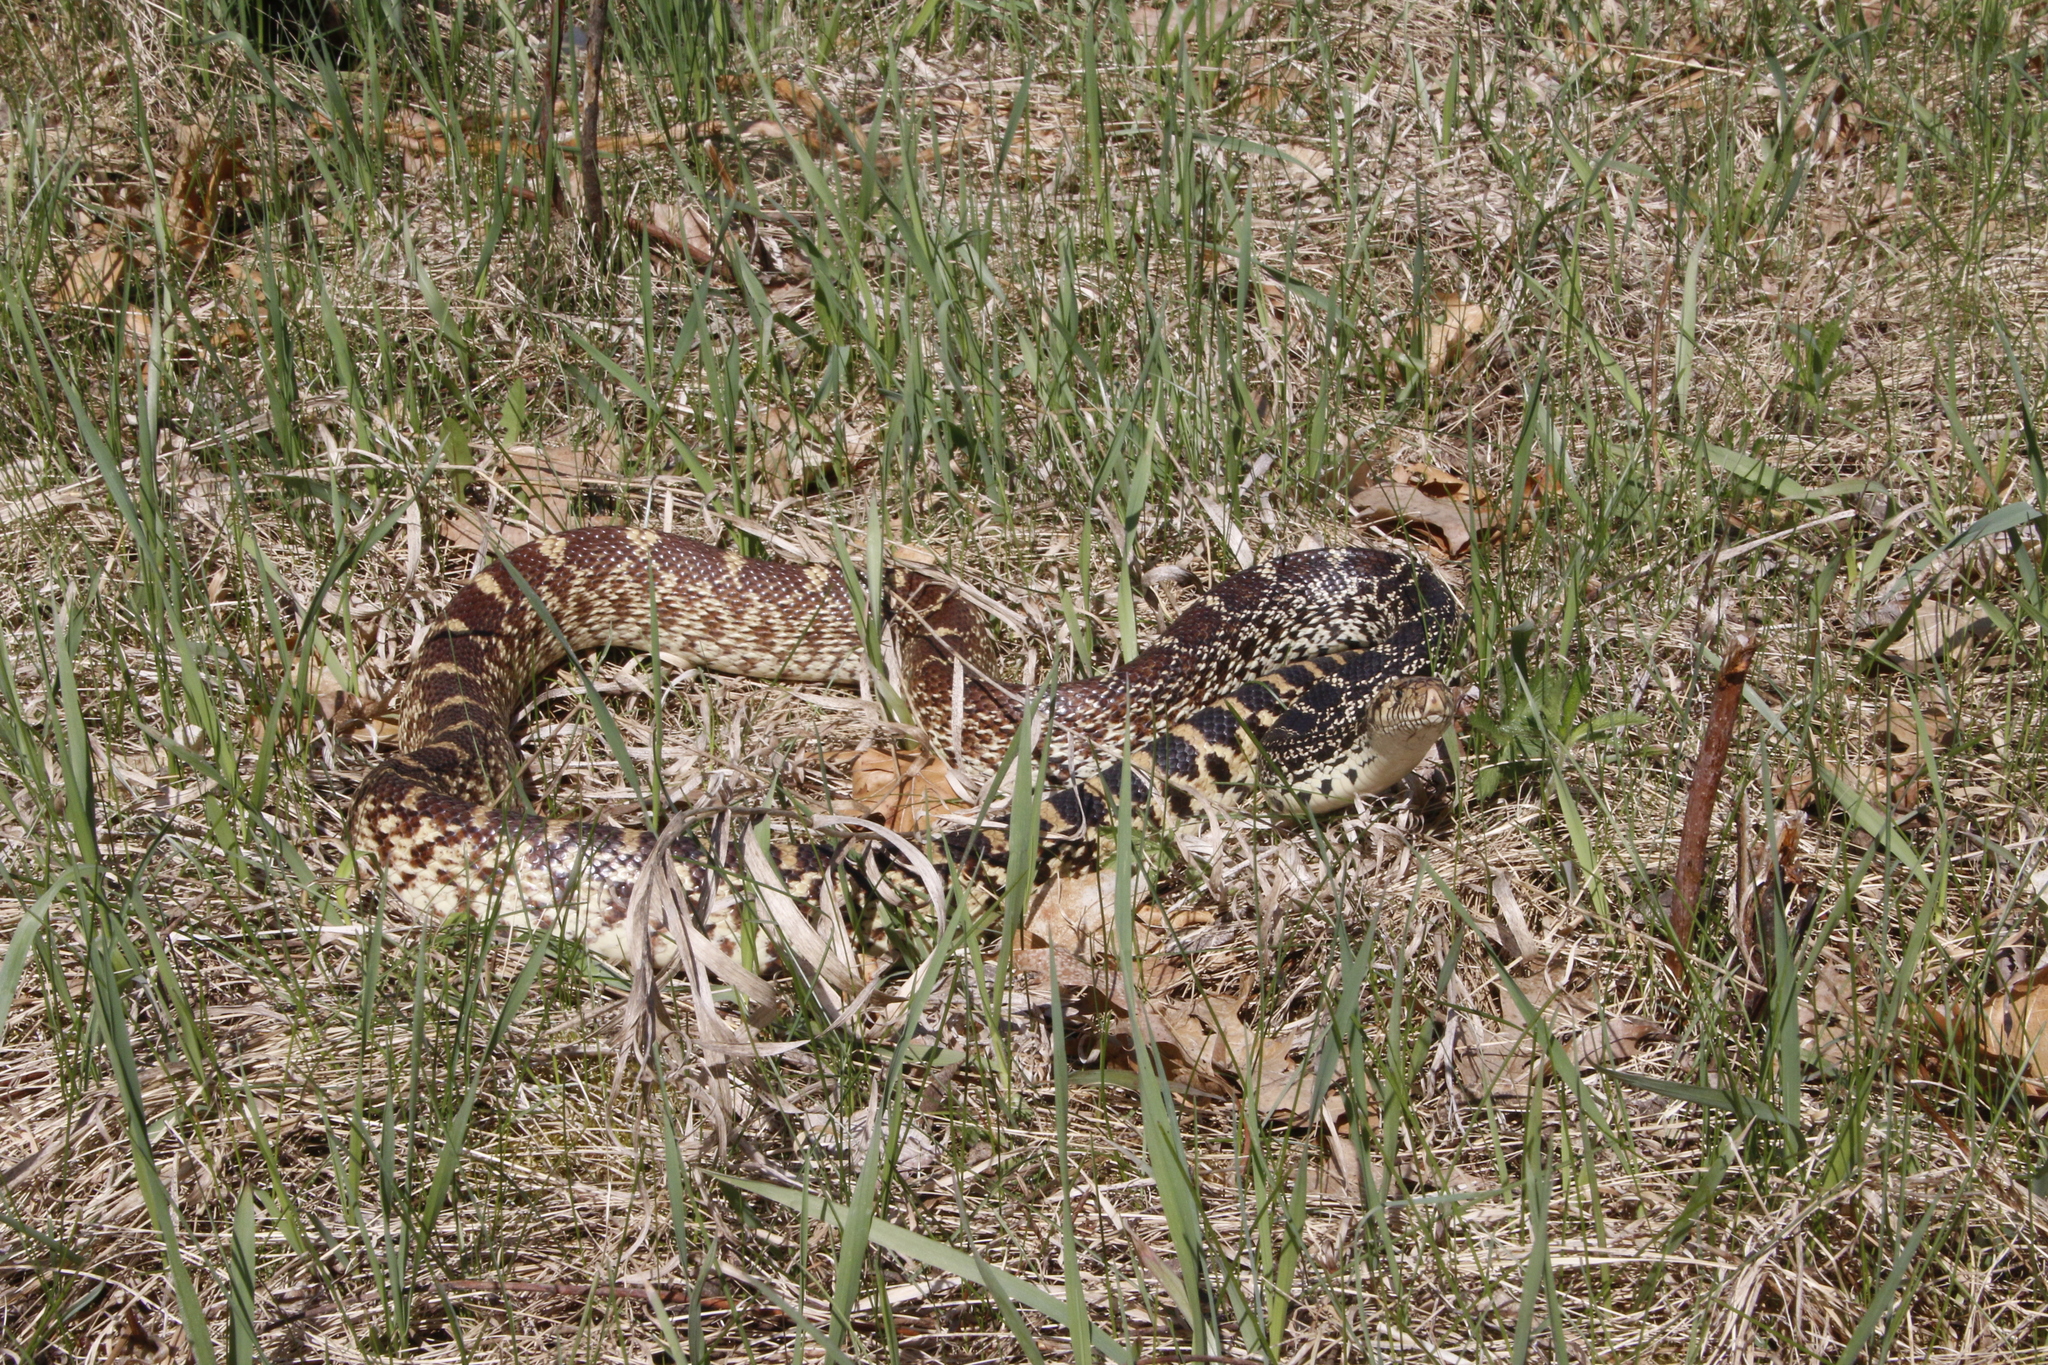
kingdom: Animalia
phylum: Chordata
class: Squamata
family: Colubridae
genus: Pituophis
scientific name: Pituophis catenifer
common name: Gopher snake
